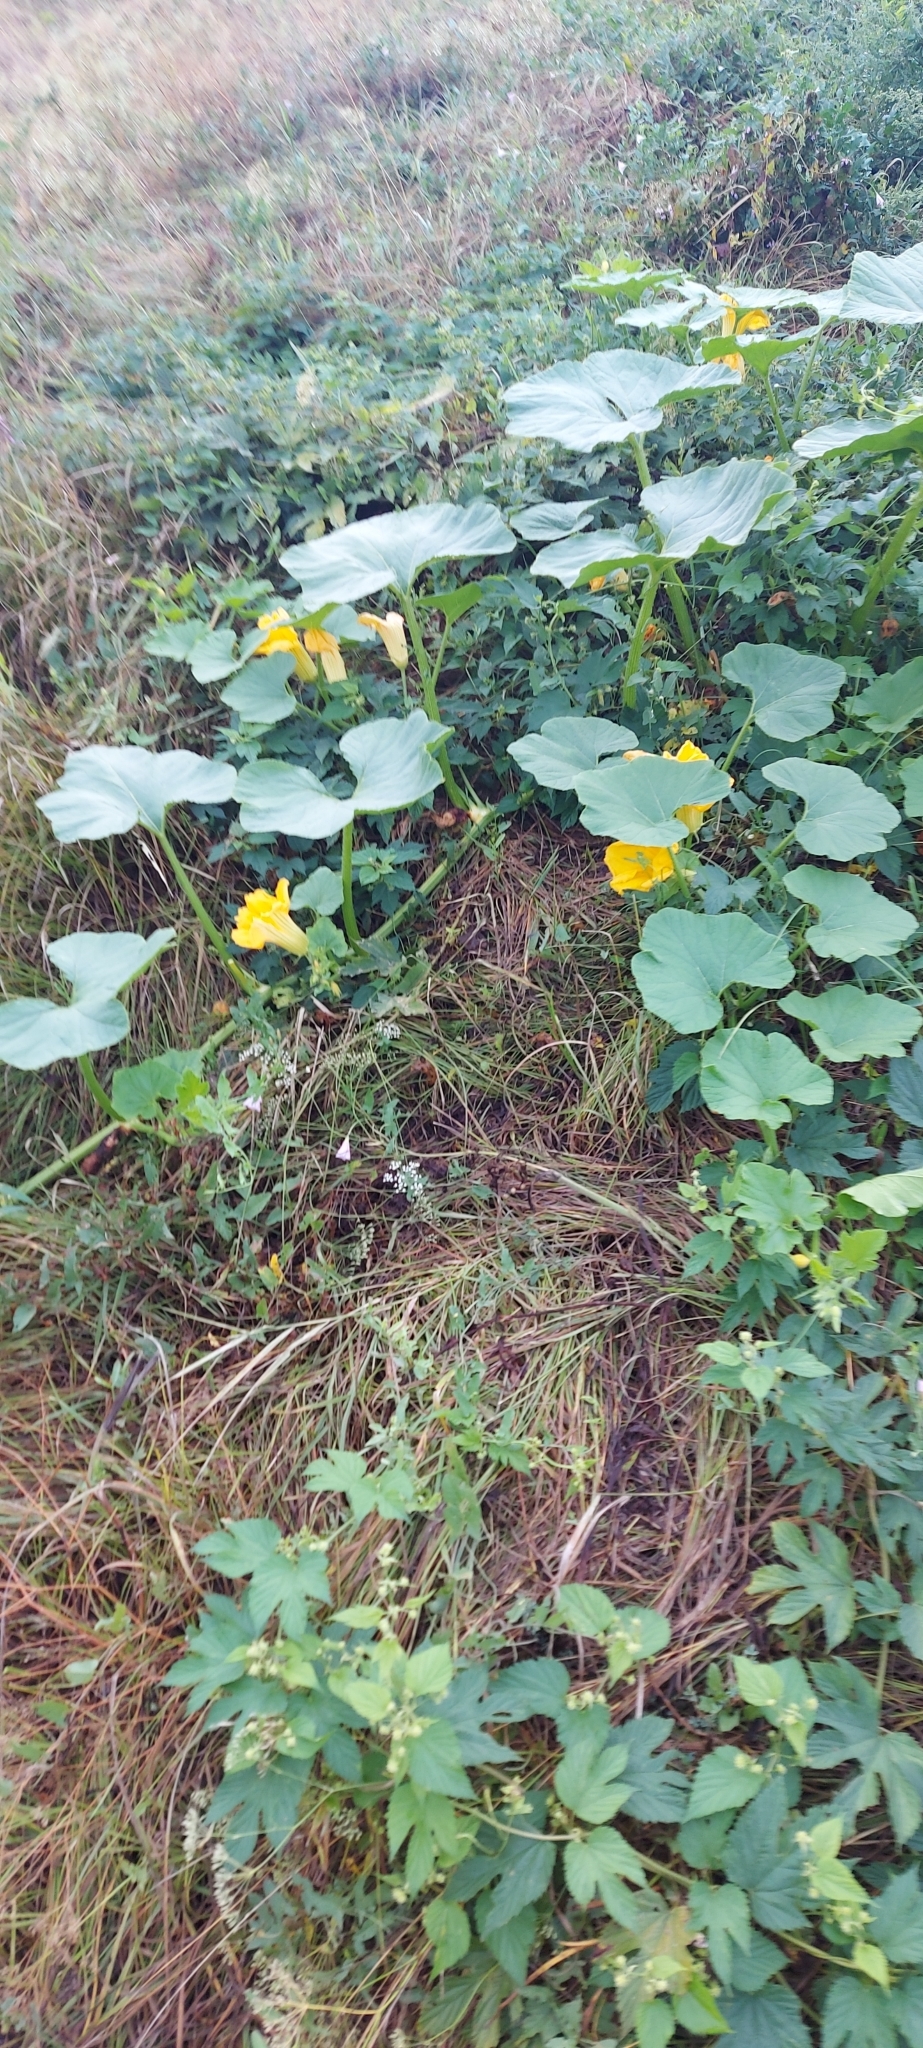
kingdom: Plantae
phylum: Tracheophyta
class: Magnoliopsida
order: Cucurbitales
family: Cucurbitaceae
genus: Cucurbita
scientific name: Cucurbita pepo
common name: Marrow
